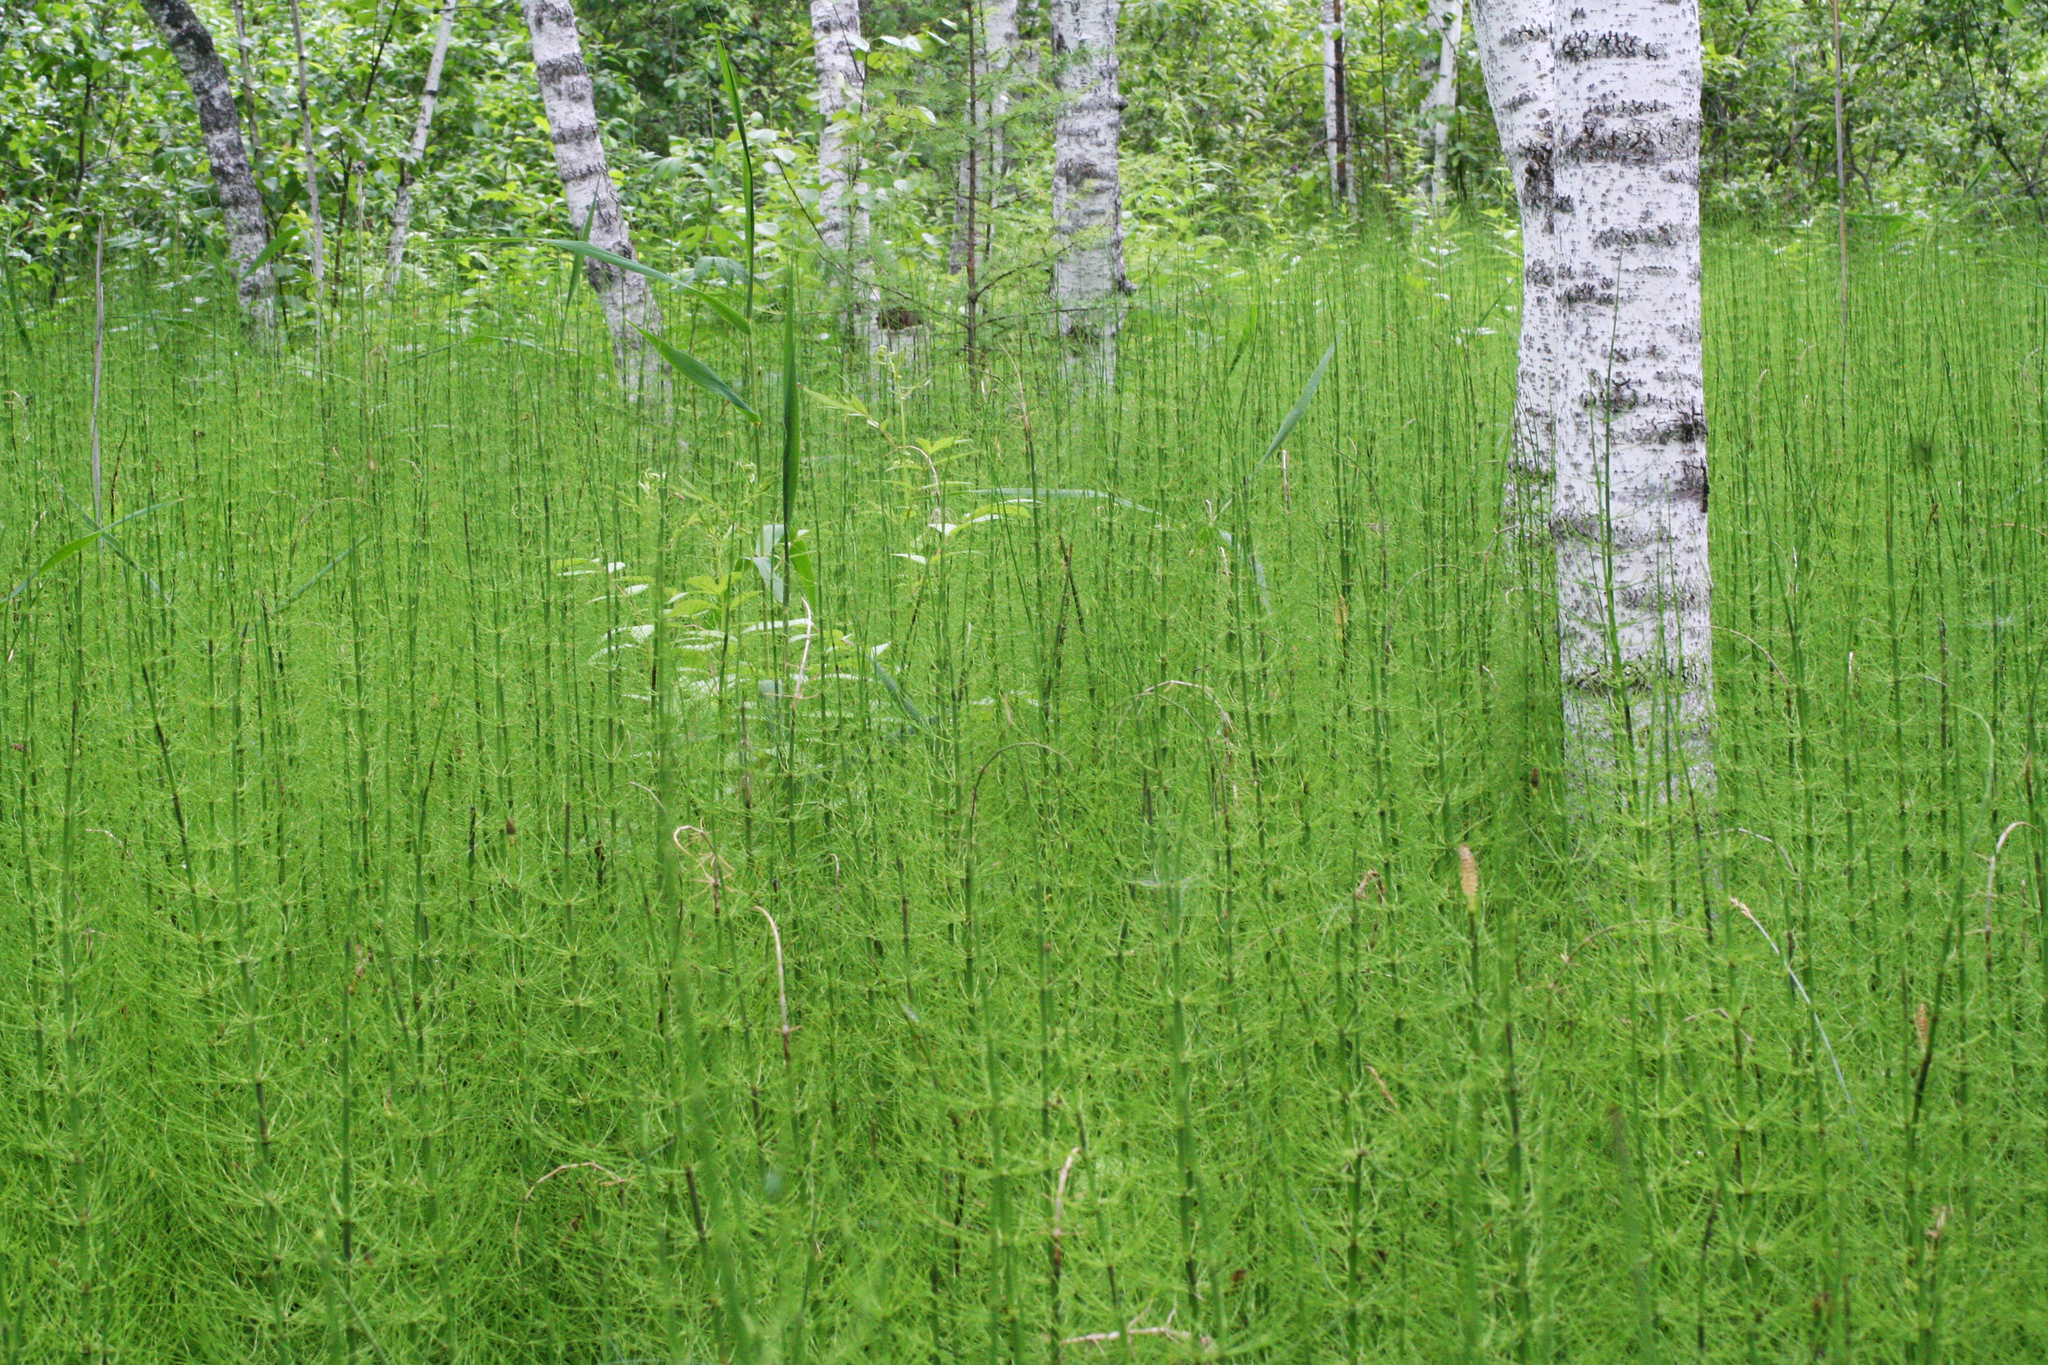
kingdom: Plantae
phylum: Tracheophyta
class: Polypodiopsida
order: Equisetales
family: Equisetaceae
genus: Equisetum
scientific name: Equisetum fluviatile
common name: Water horsetail
